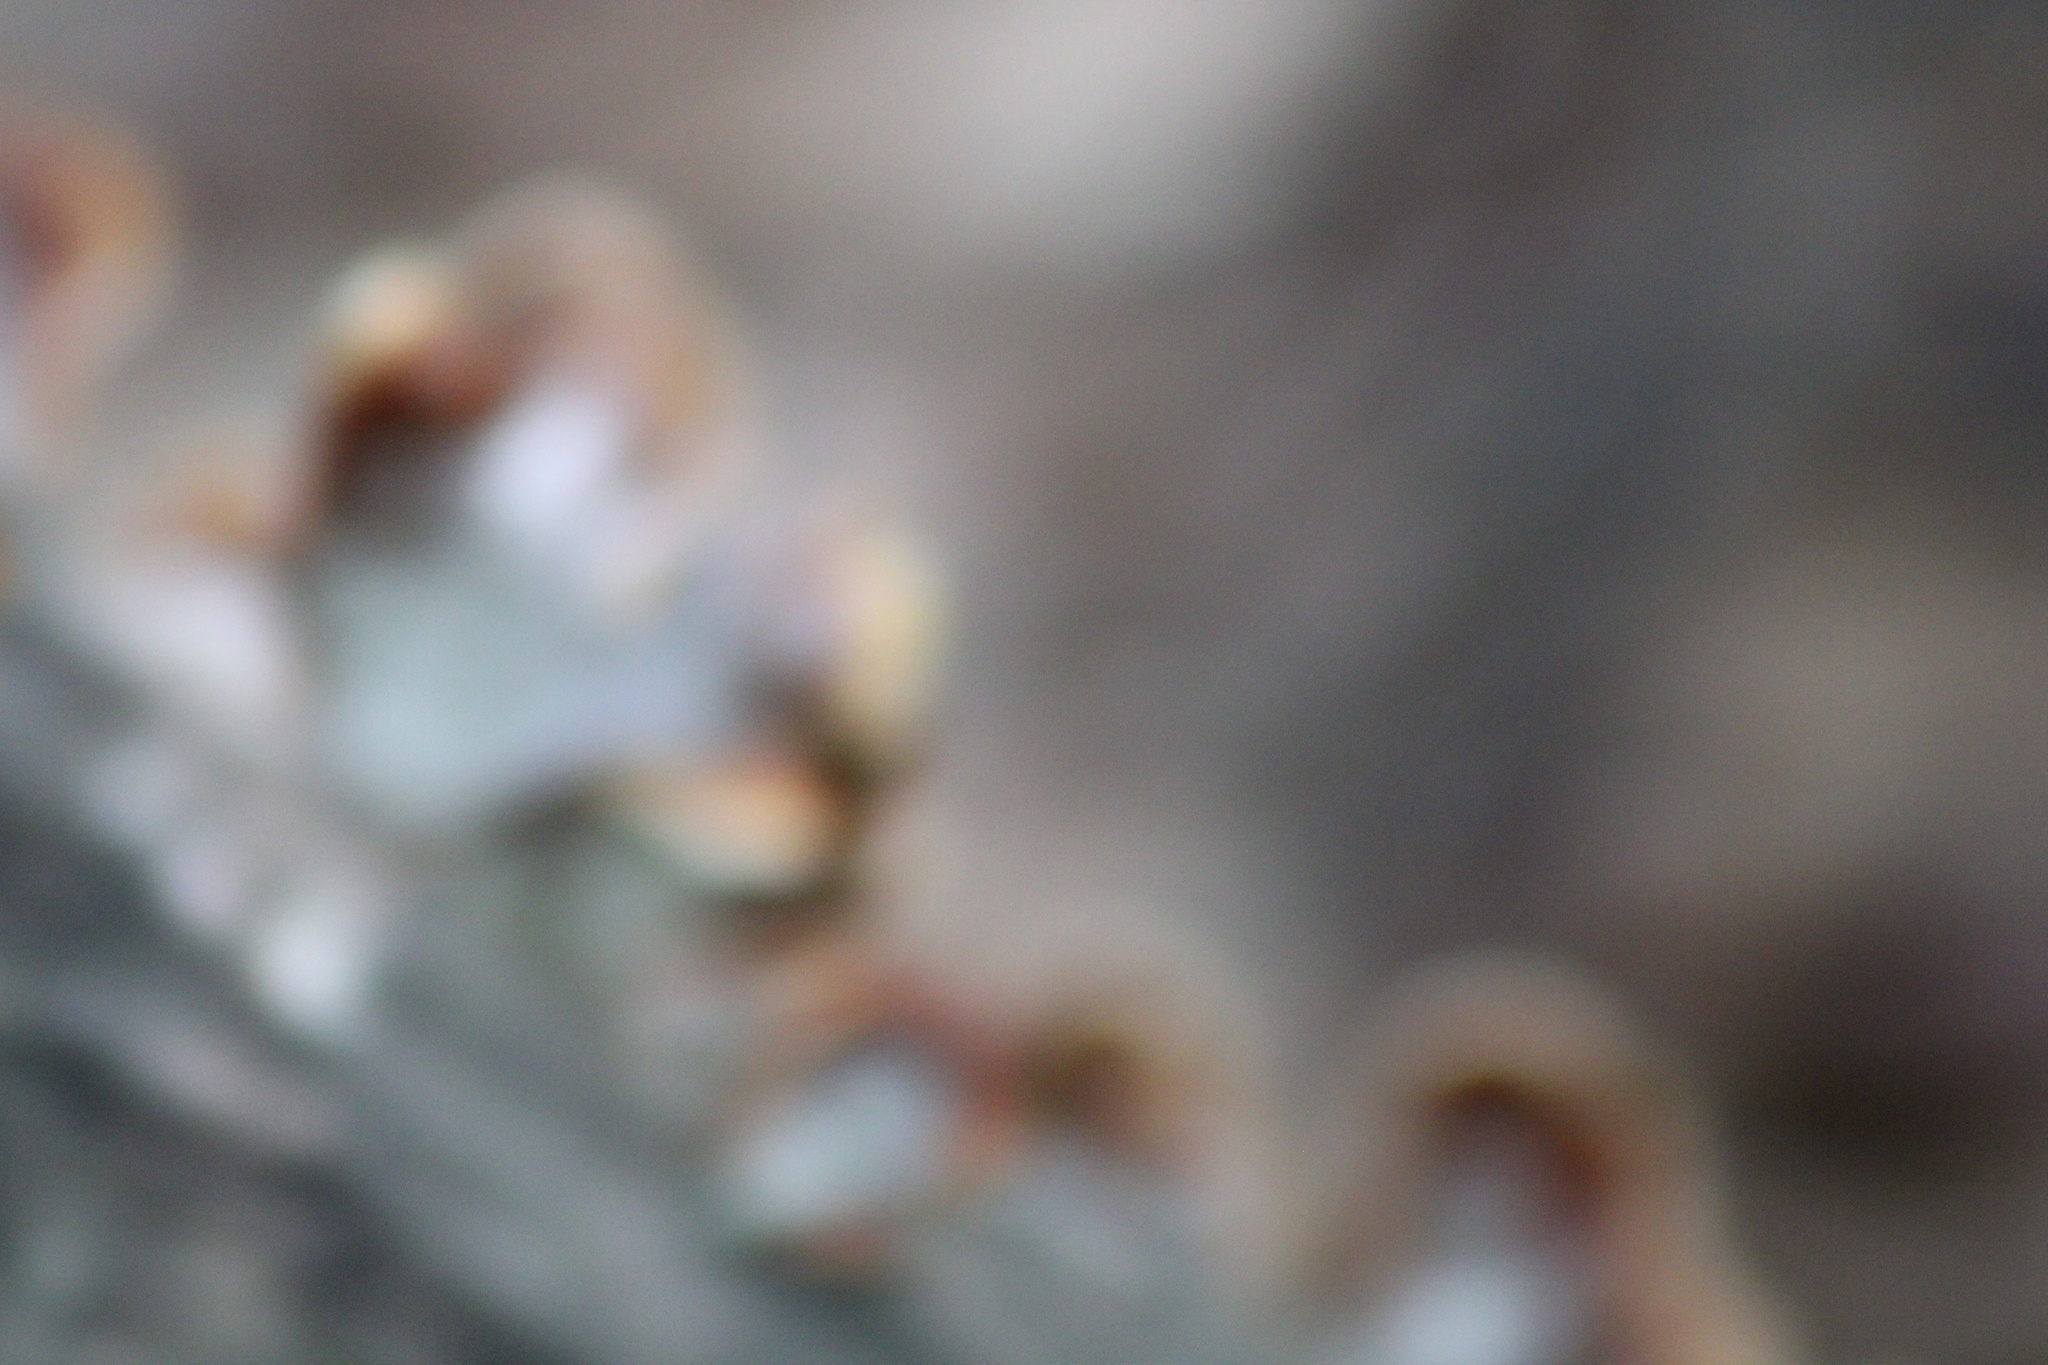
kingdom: Fungi
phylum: Basidiomycota
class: Agaricomycetes
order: Russulales
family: Stereaceae
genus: Stereum
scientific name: Stereum lobatum
